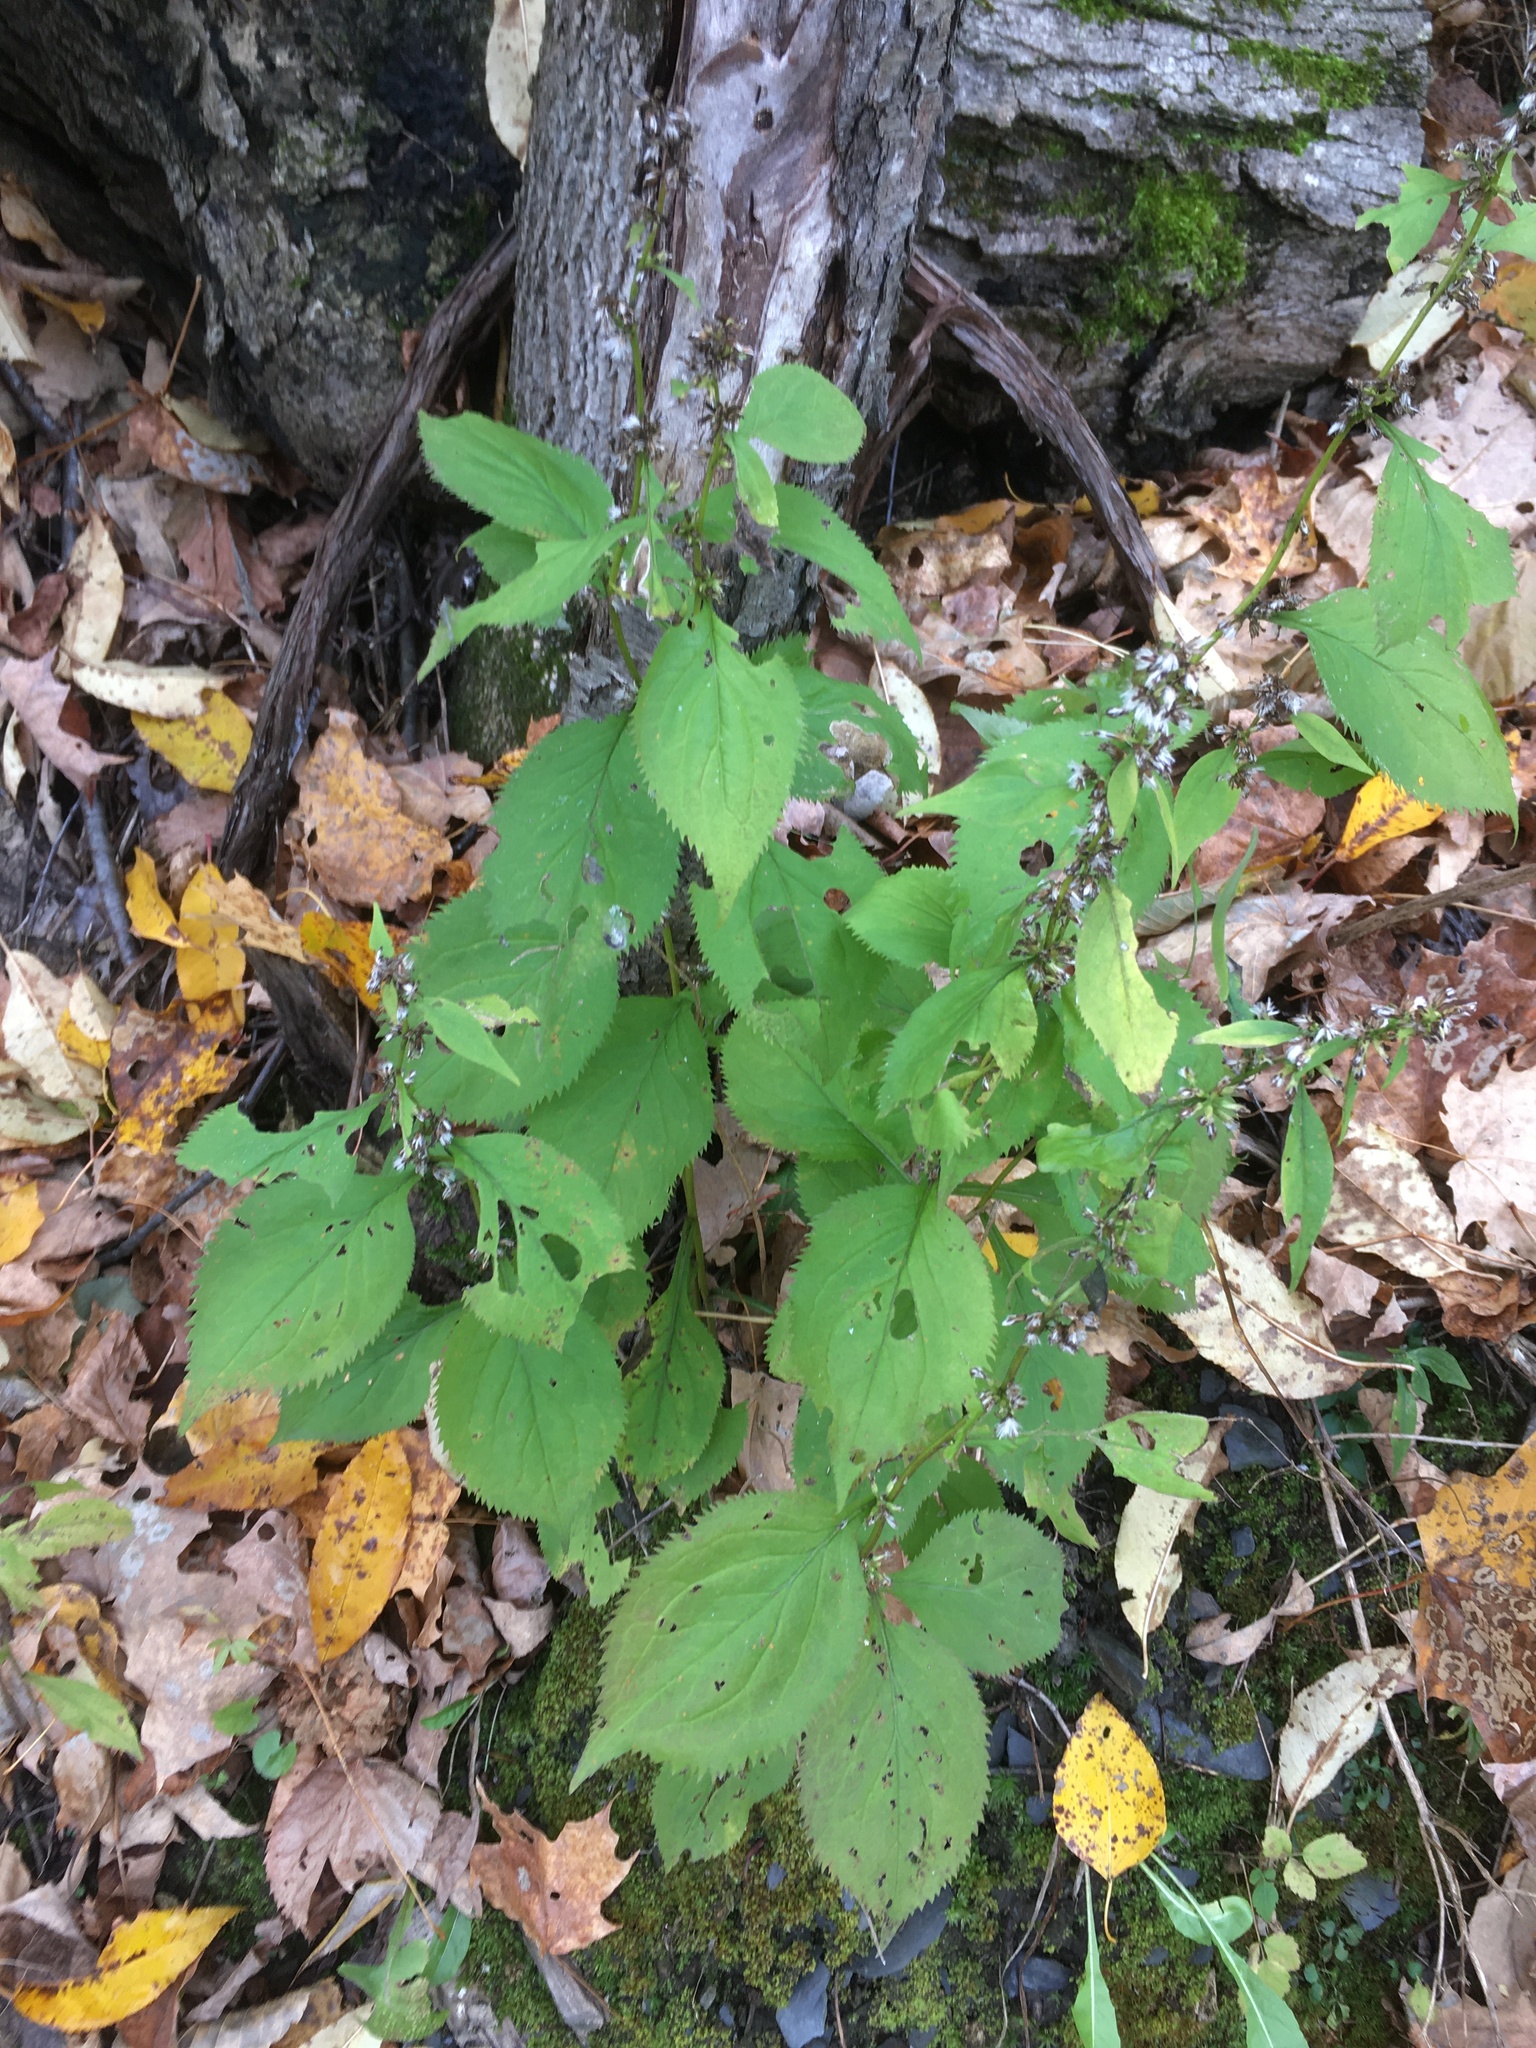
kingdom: Plantae
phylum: Tracheophyta
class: Magnoliopsida
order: Asterales
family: Asteraceae
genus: Solidago
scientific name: Solidago flexicaulis
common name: Zig-zag goldenrod
